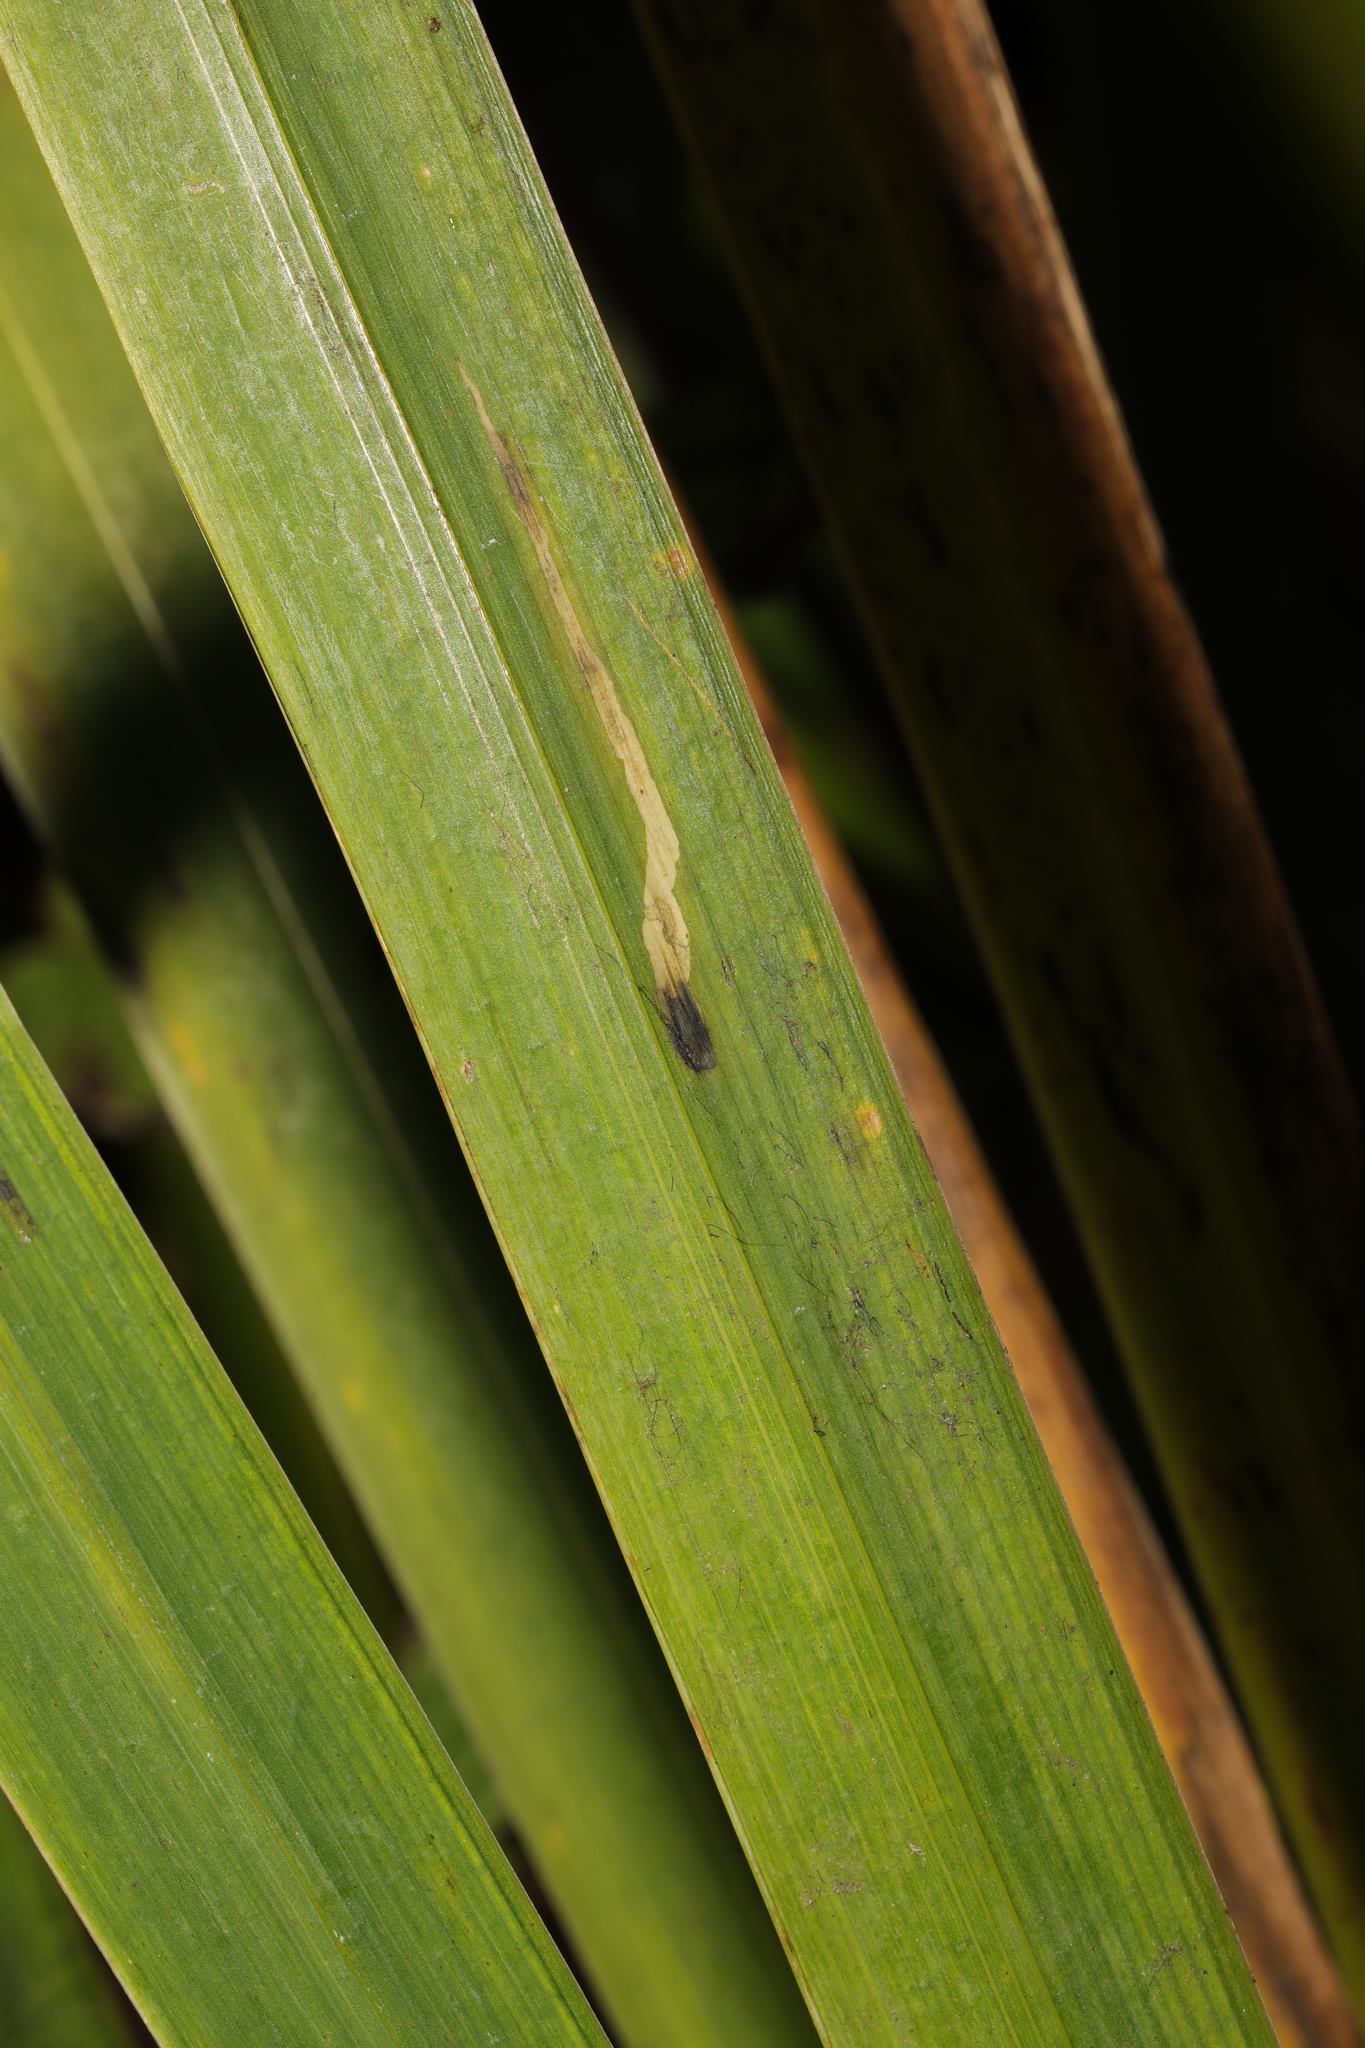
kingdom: Plantae
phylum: Tracheophyta
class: Liliopsida
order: Asparagales
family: Iridaceae
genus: Iris
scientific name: Iris pseudacorus
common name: Yellow flag
